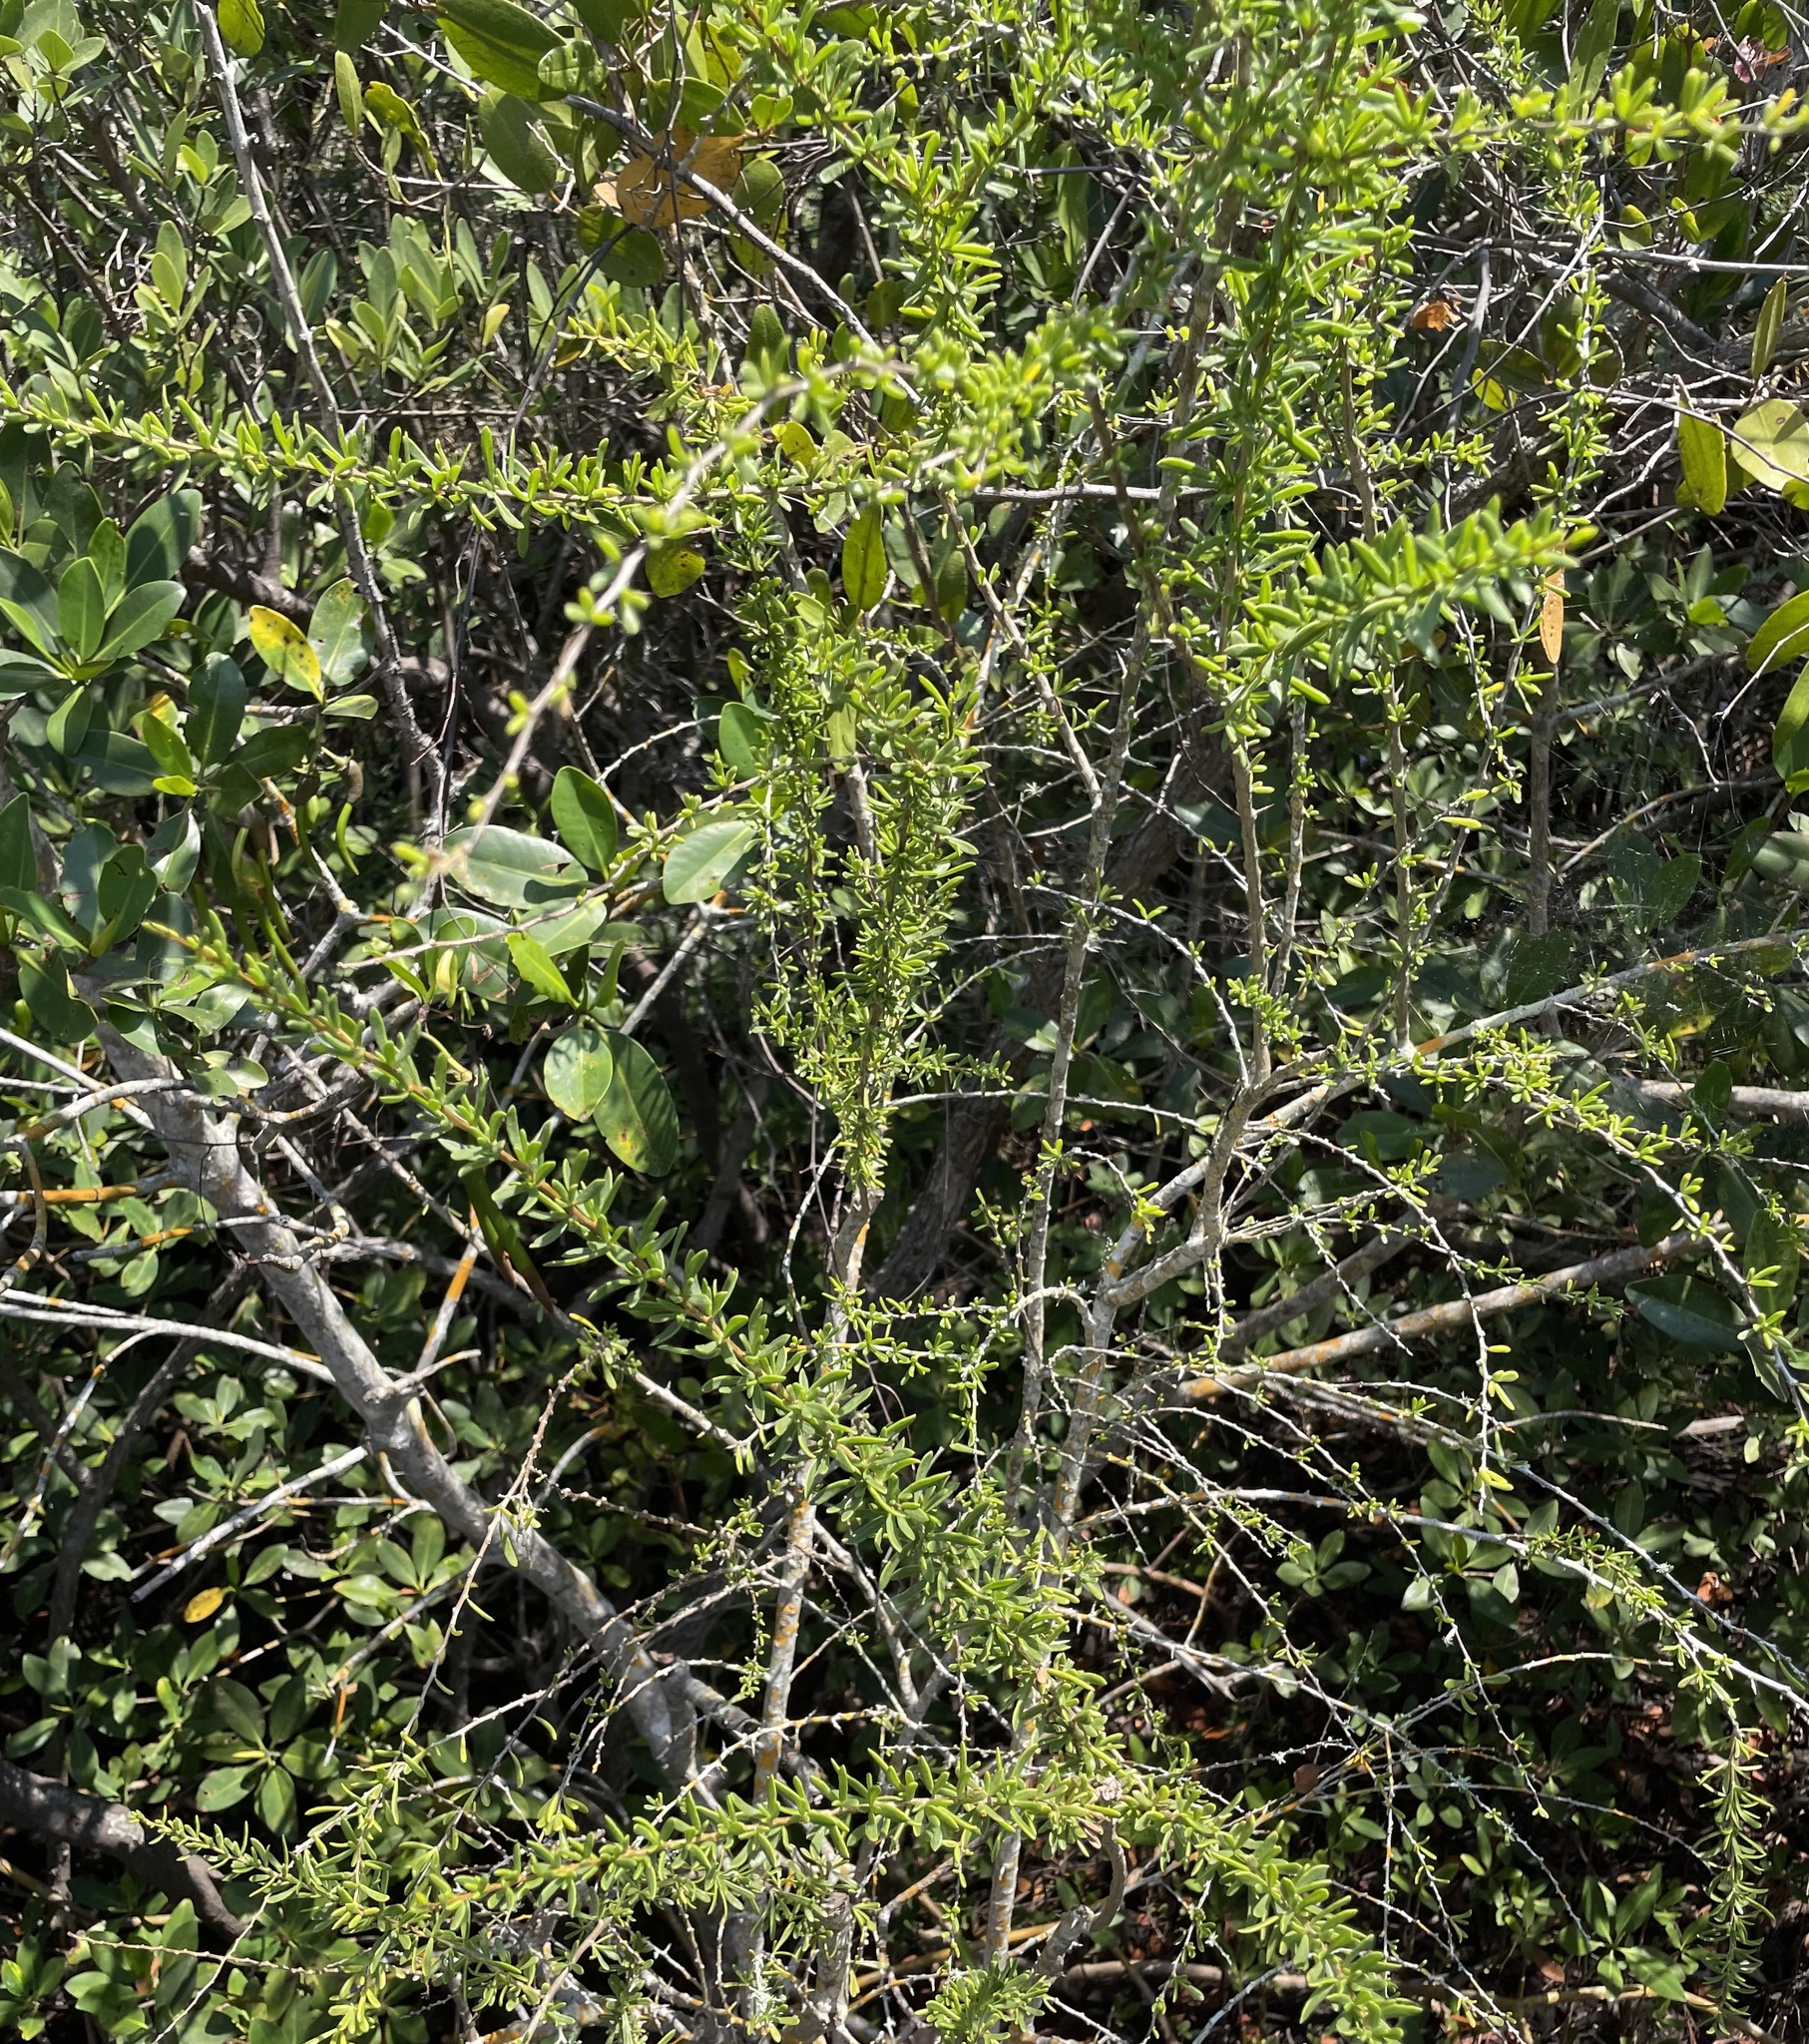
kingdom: Plantae
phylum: Tracheophyta
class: Magnoliopsida
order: Solanales
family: Solanaceae
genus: Lycium
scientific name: Lycium carolinianum
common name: Christmasberry
